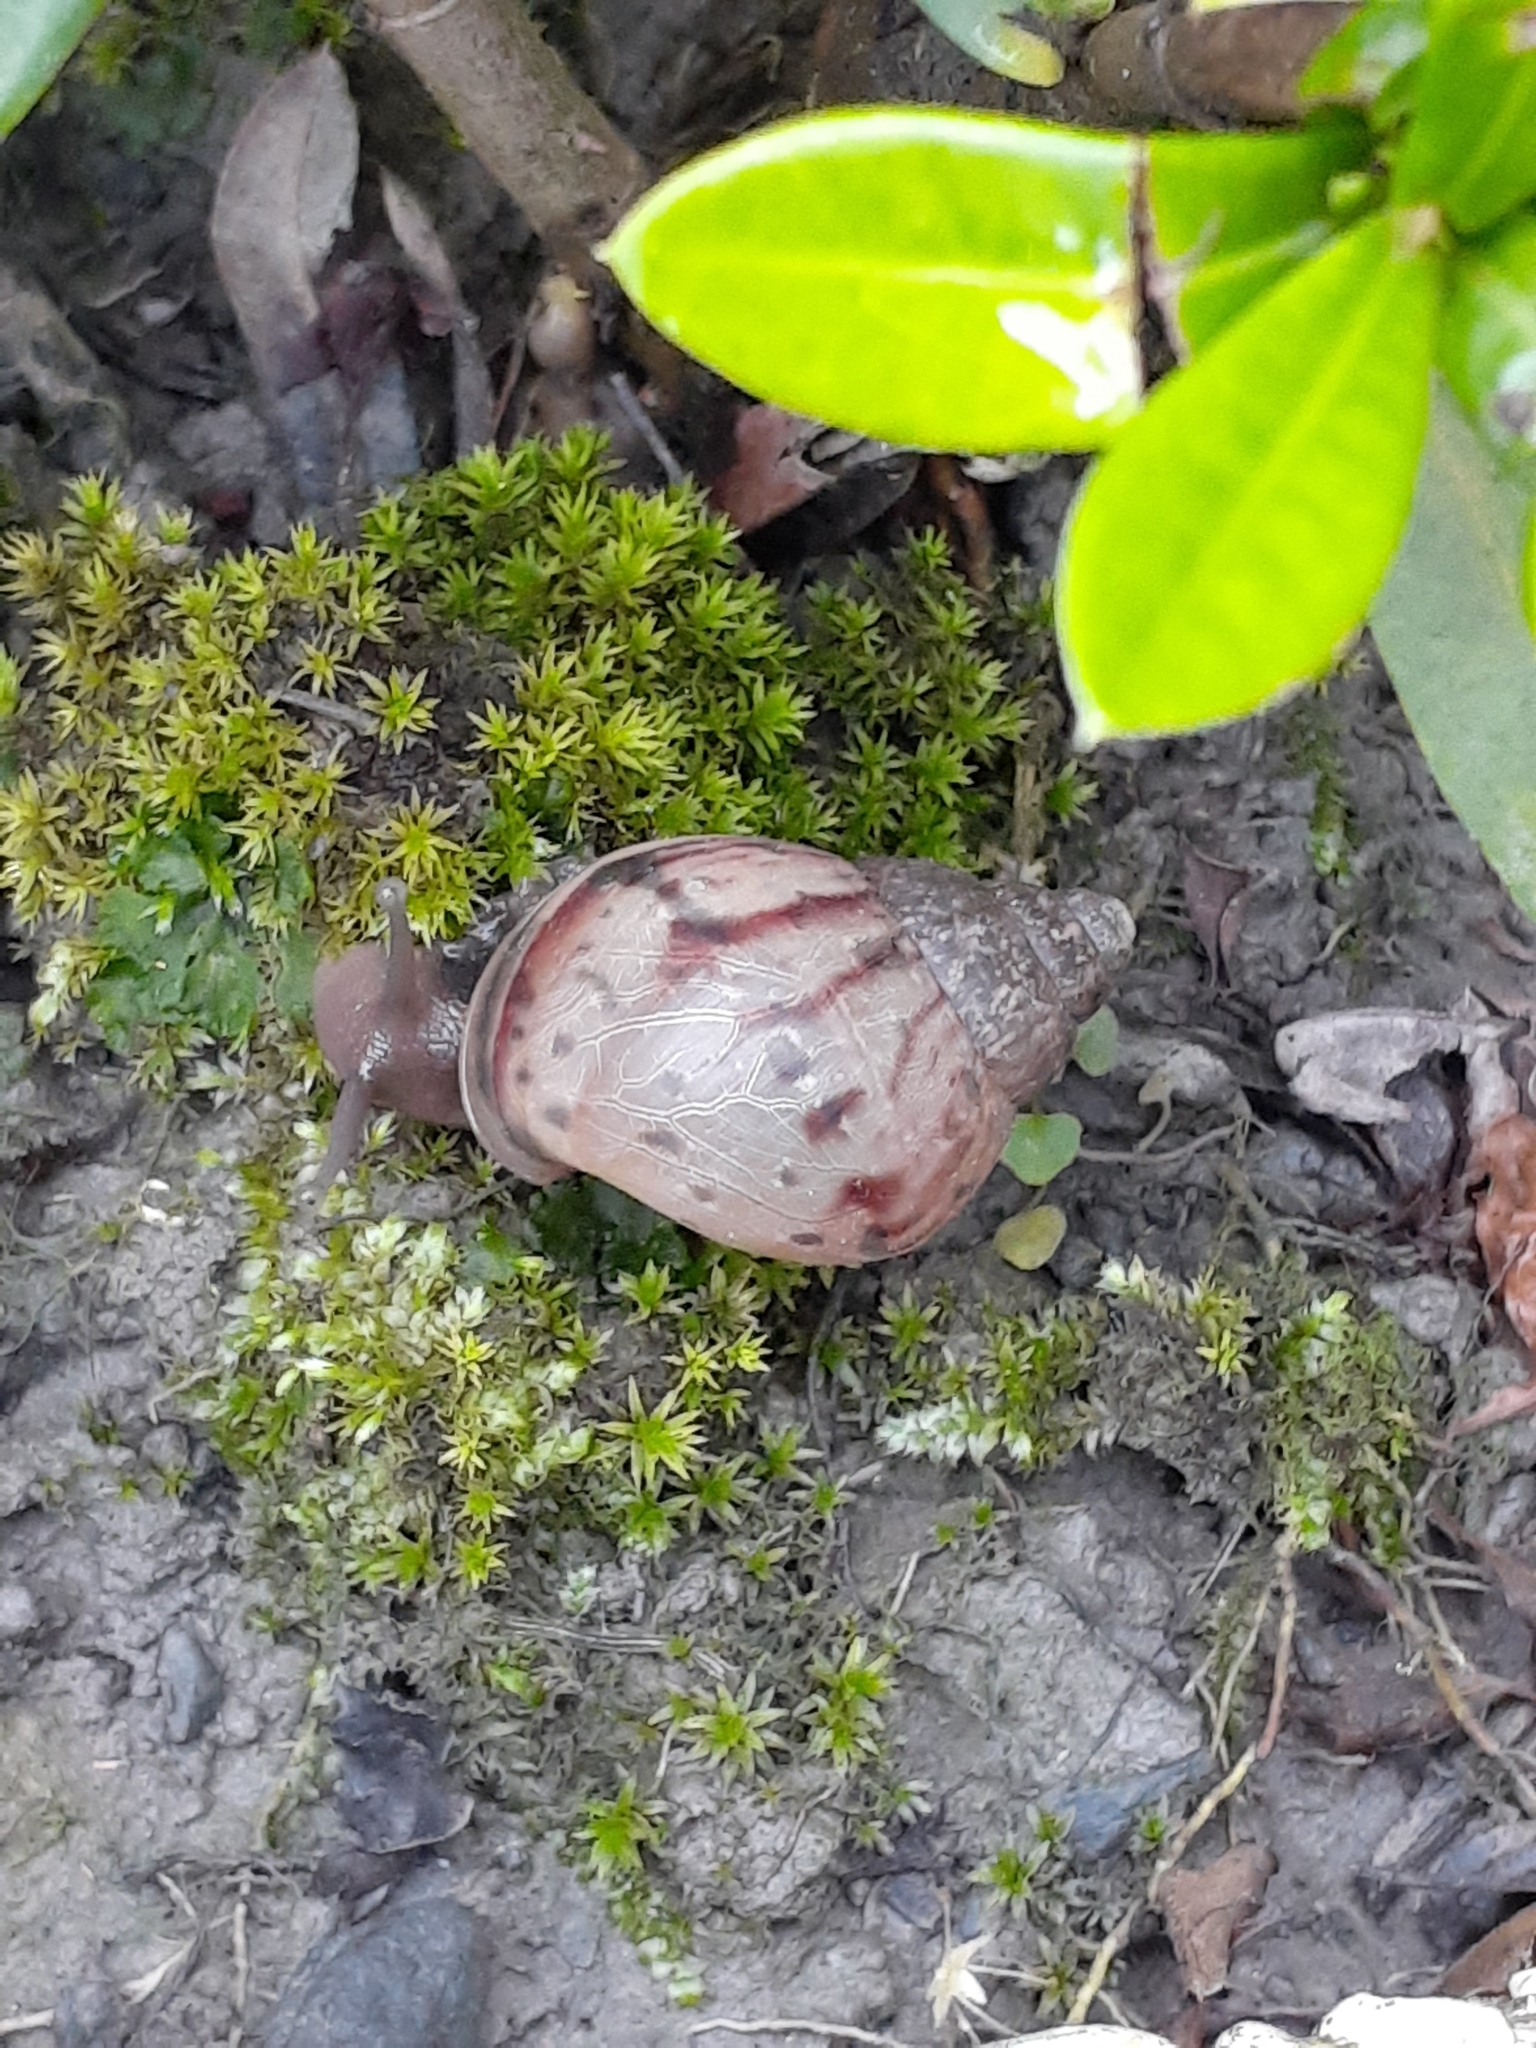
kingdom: Animalia
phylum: Mollusca
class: Gastropoda
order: Stylommatophora
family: Achatinidae
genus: Lissachatina
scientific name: Lissachatina fulica
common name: Giant african snail
